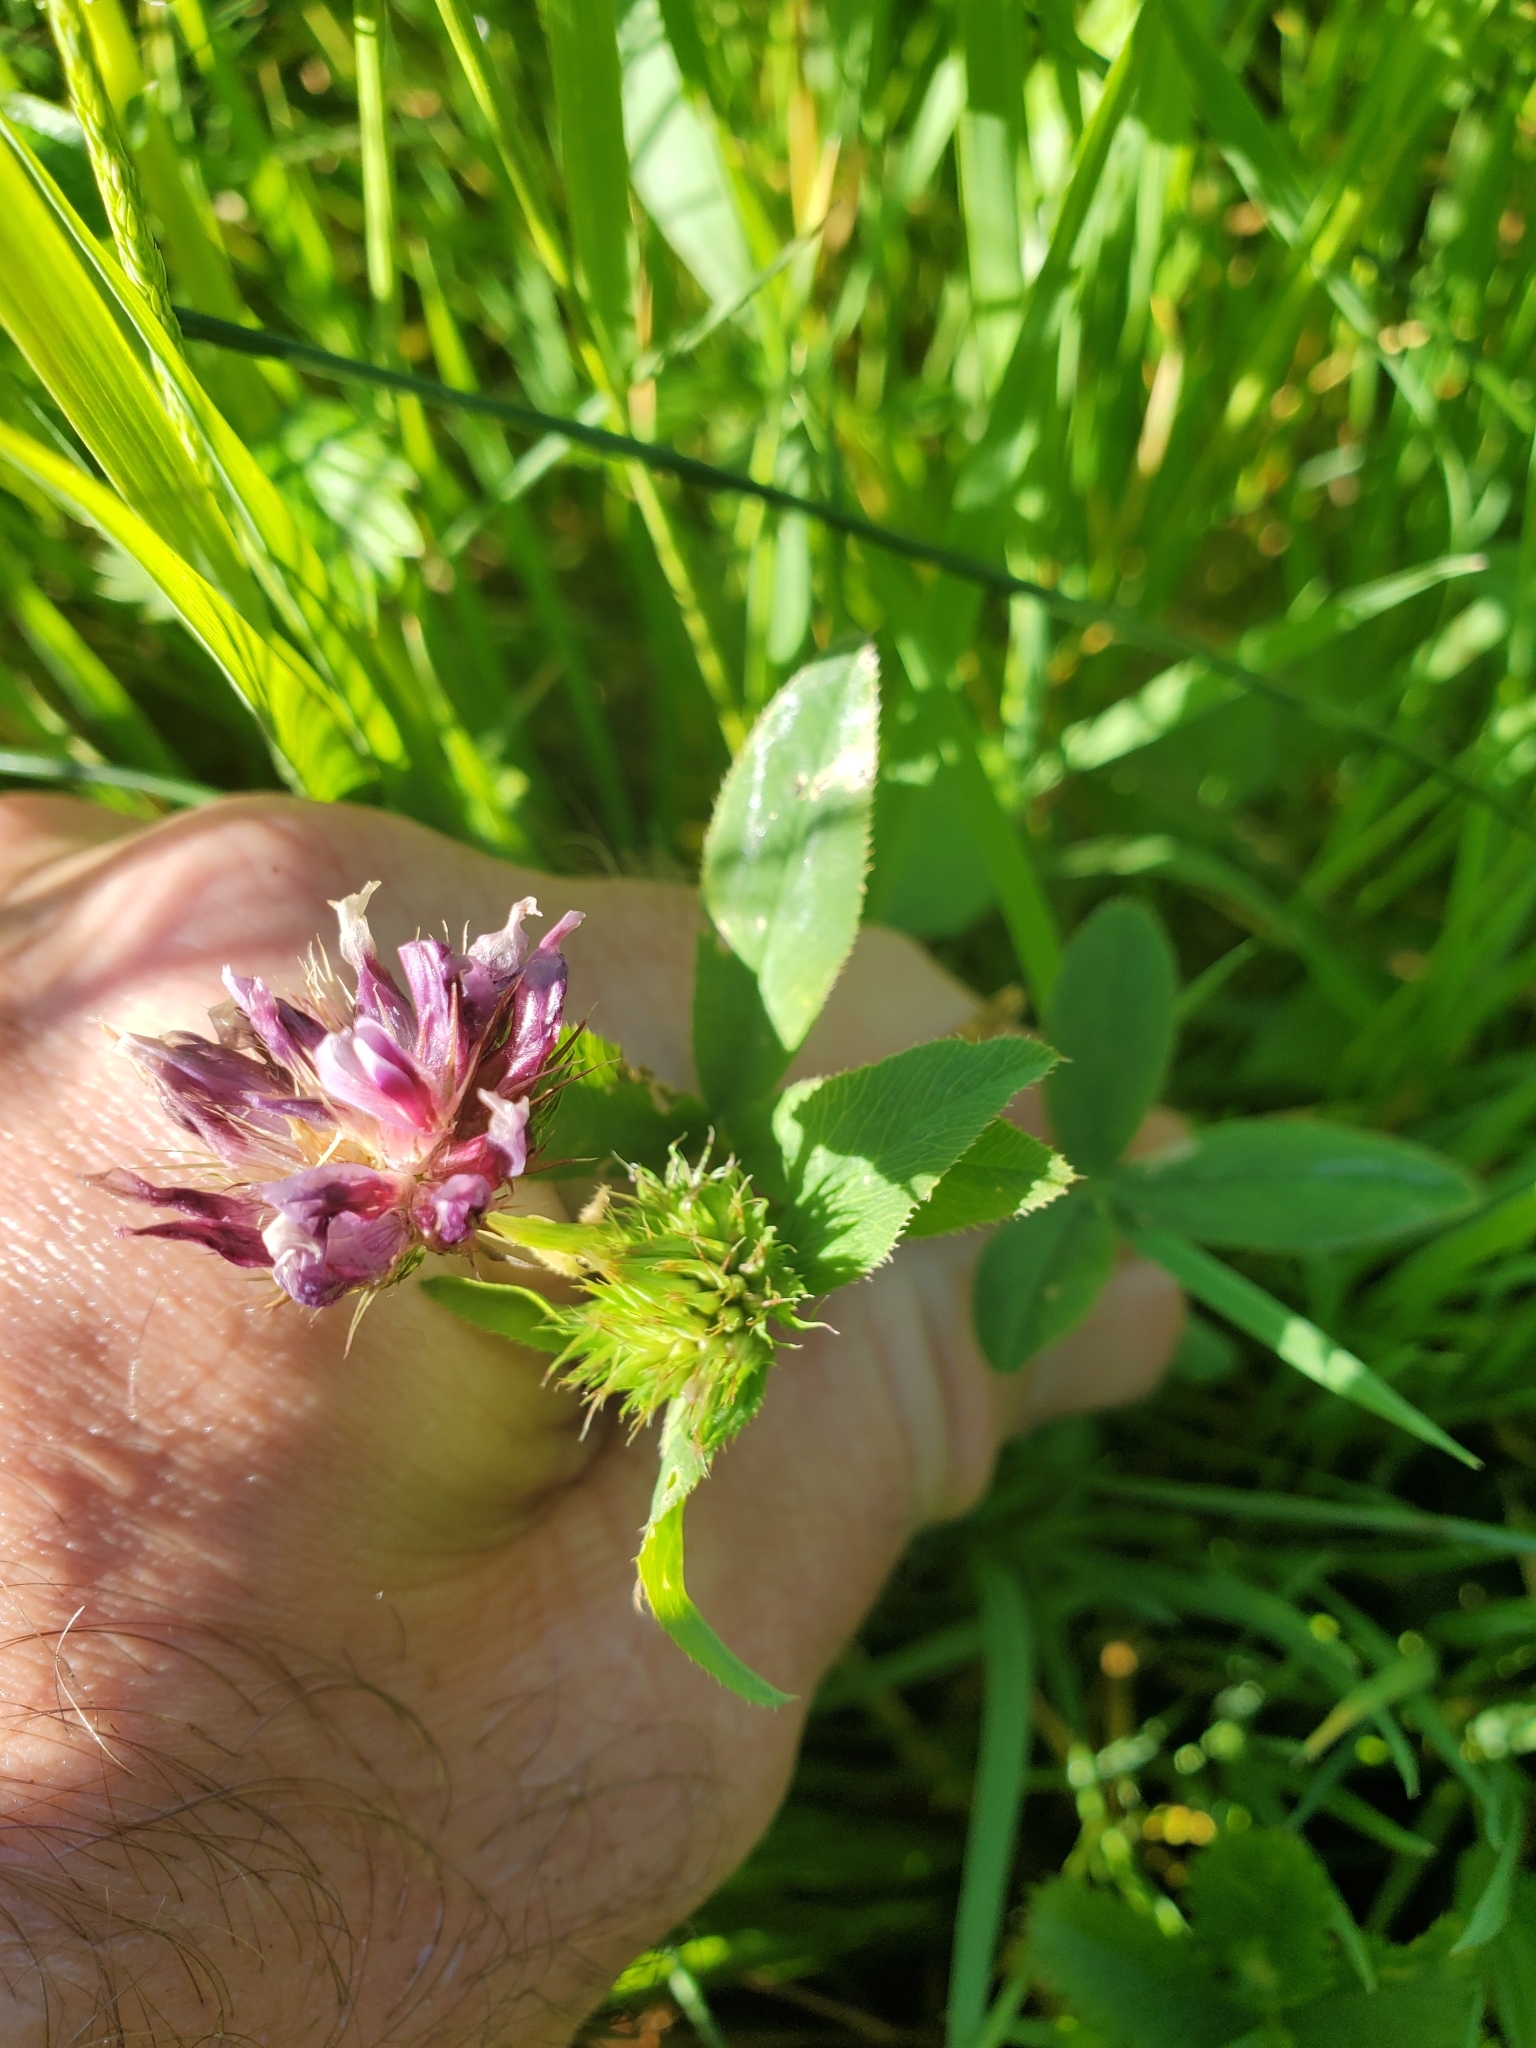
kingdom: Plantae
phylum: Tracheophyta
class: Magnoliopsida
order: Fabales
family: Fabaceae
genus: Trifolium
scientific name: Trifolium wormskioldii
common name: Springbank clover
